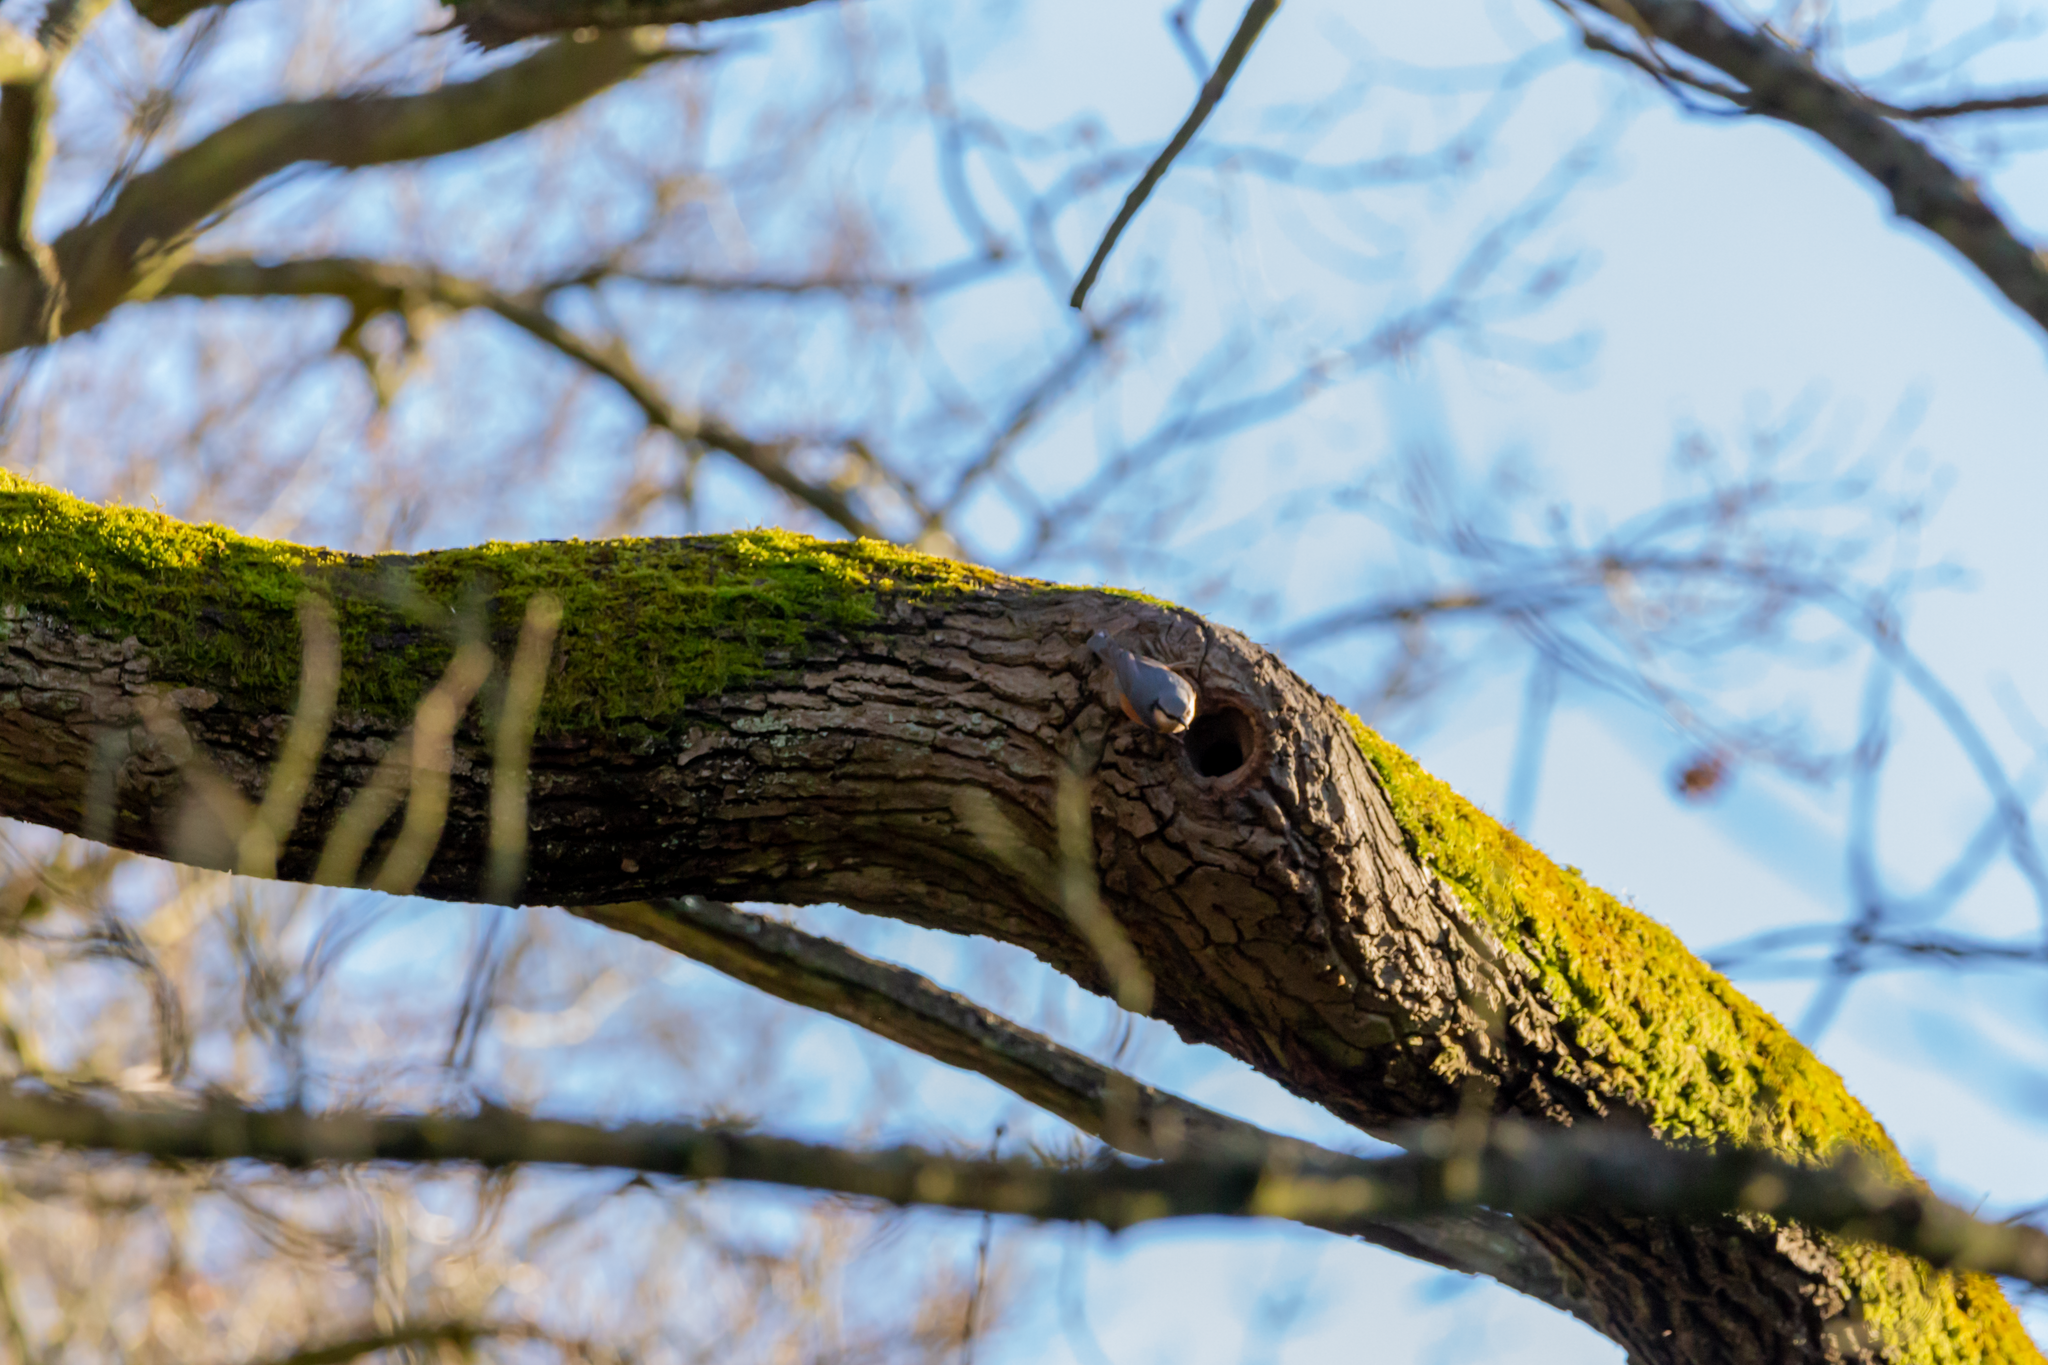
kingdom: Animalia
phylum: Chordata
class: Aves
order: Passeriformes
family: Sittidae
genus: Sitta
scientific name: Sitta europaea
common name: Eurasian nuthatch
